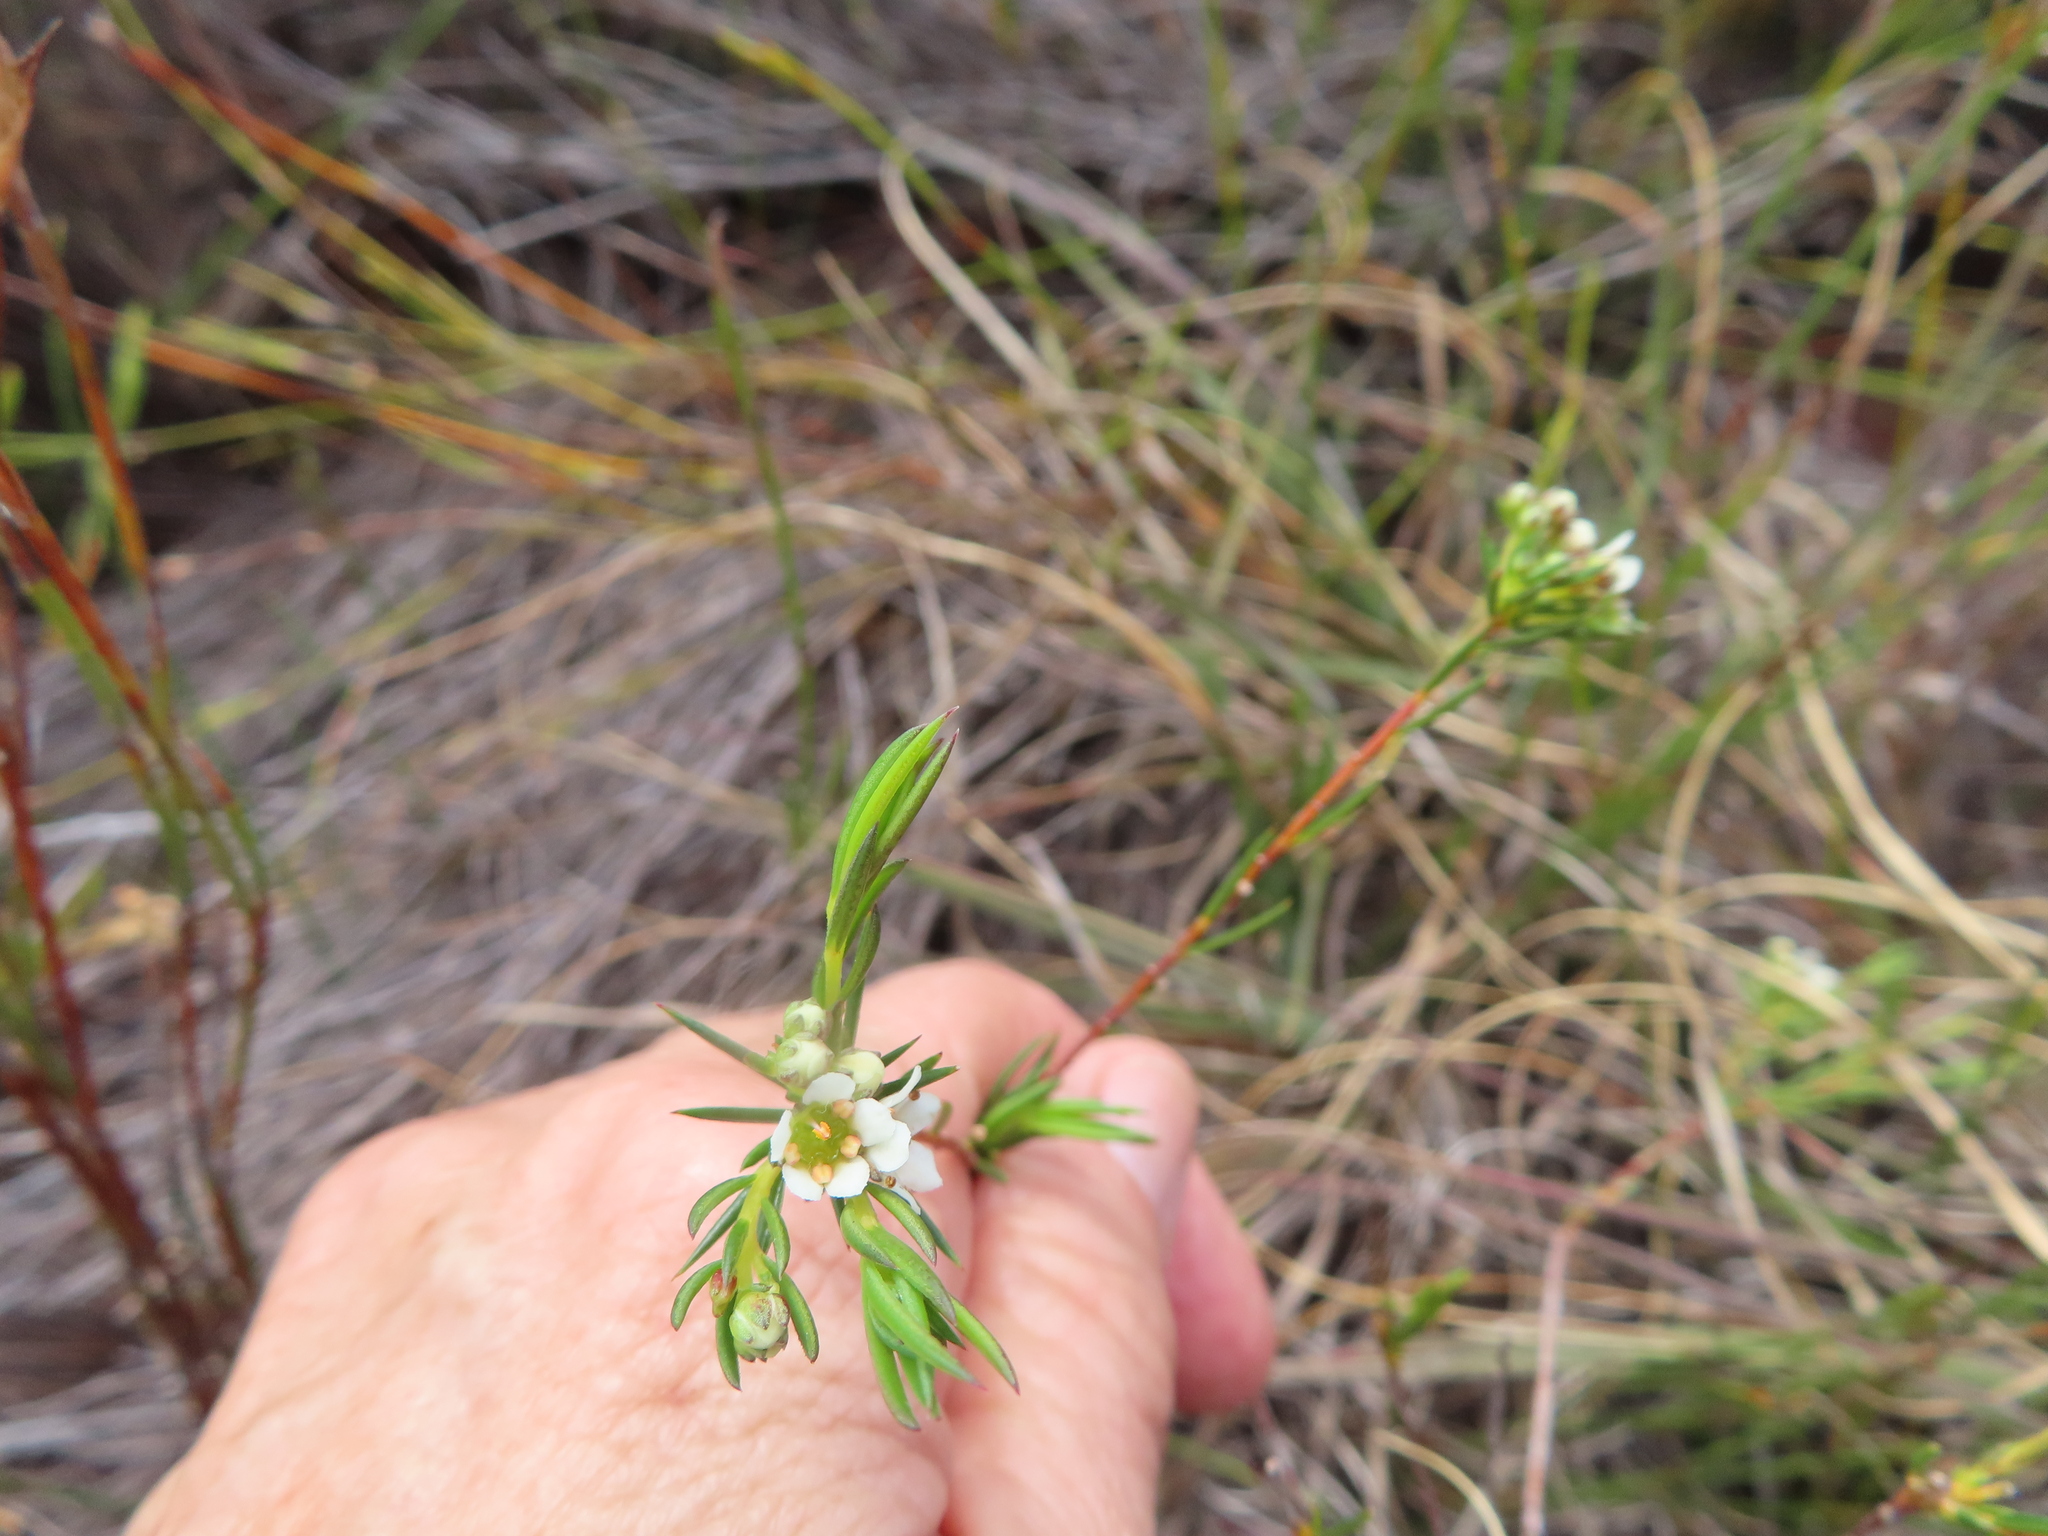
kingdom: Plantae
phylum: Tracheophyta
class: Magnoliopsida
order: Sapindales
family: Rutaceae
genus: Diosma
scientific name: Diosma hirsuta
